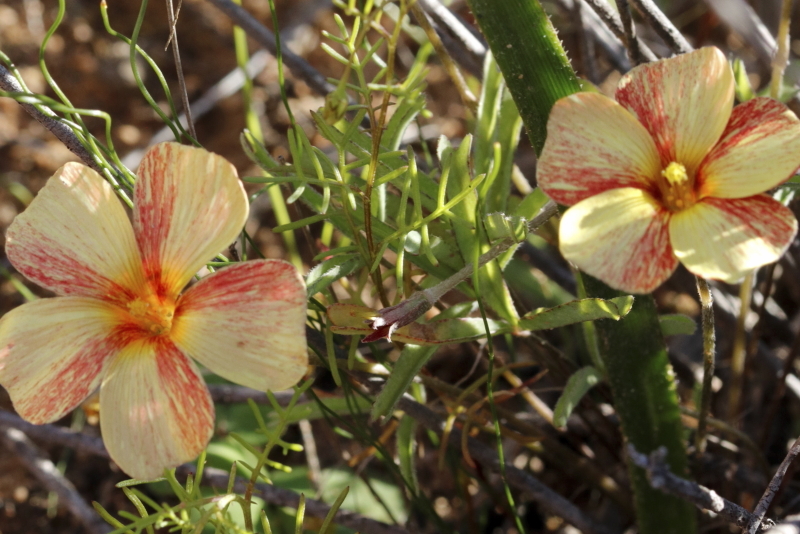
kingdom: Plantae
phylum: Tracheophyta
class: Magnoliopsida
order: Oxalidales
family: Oxalidaceae
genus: Oxalis
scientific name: Oxalis obtusa
